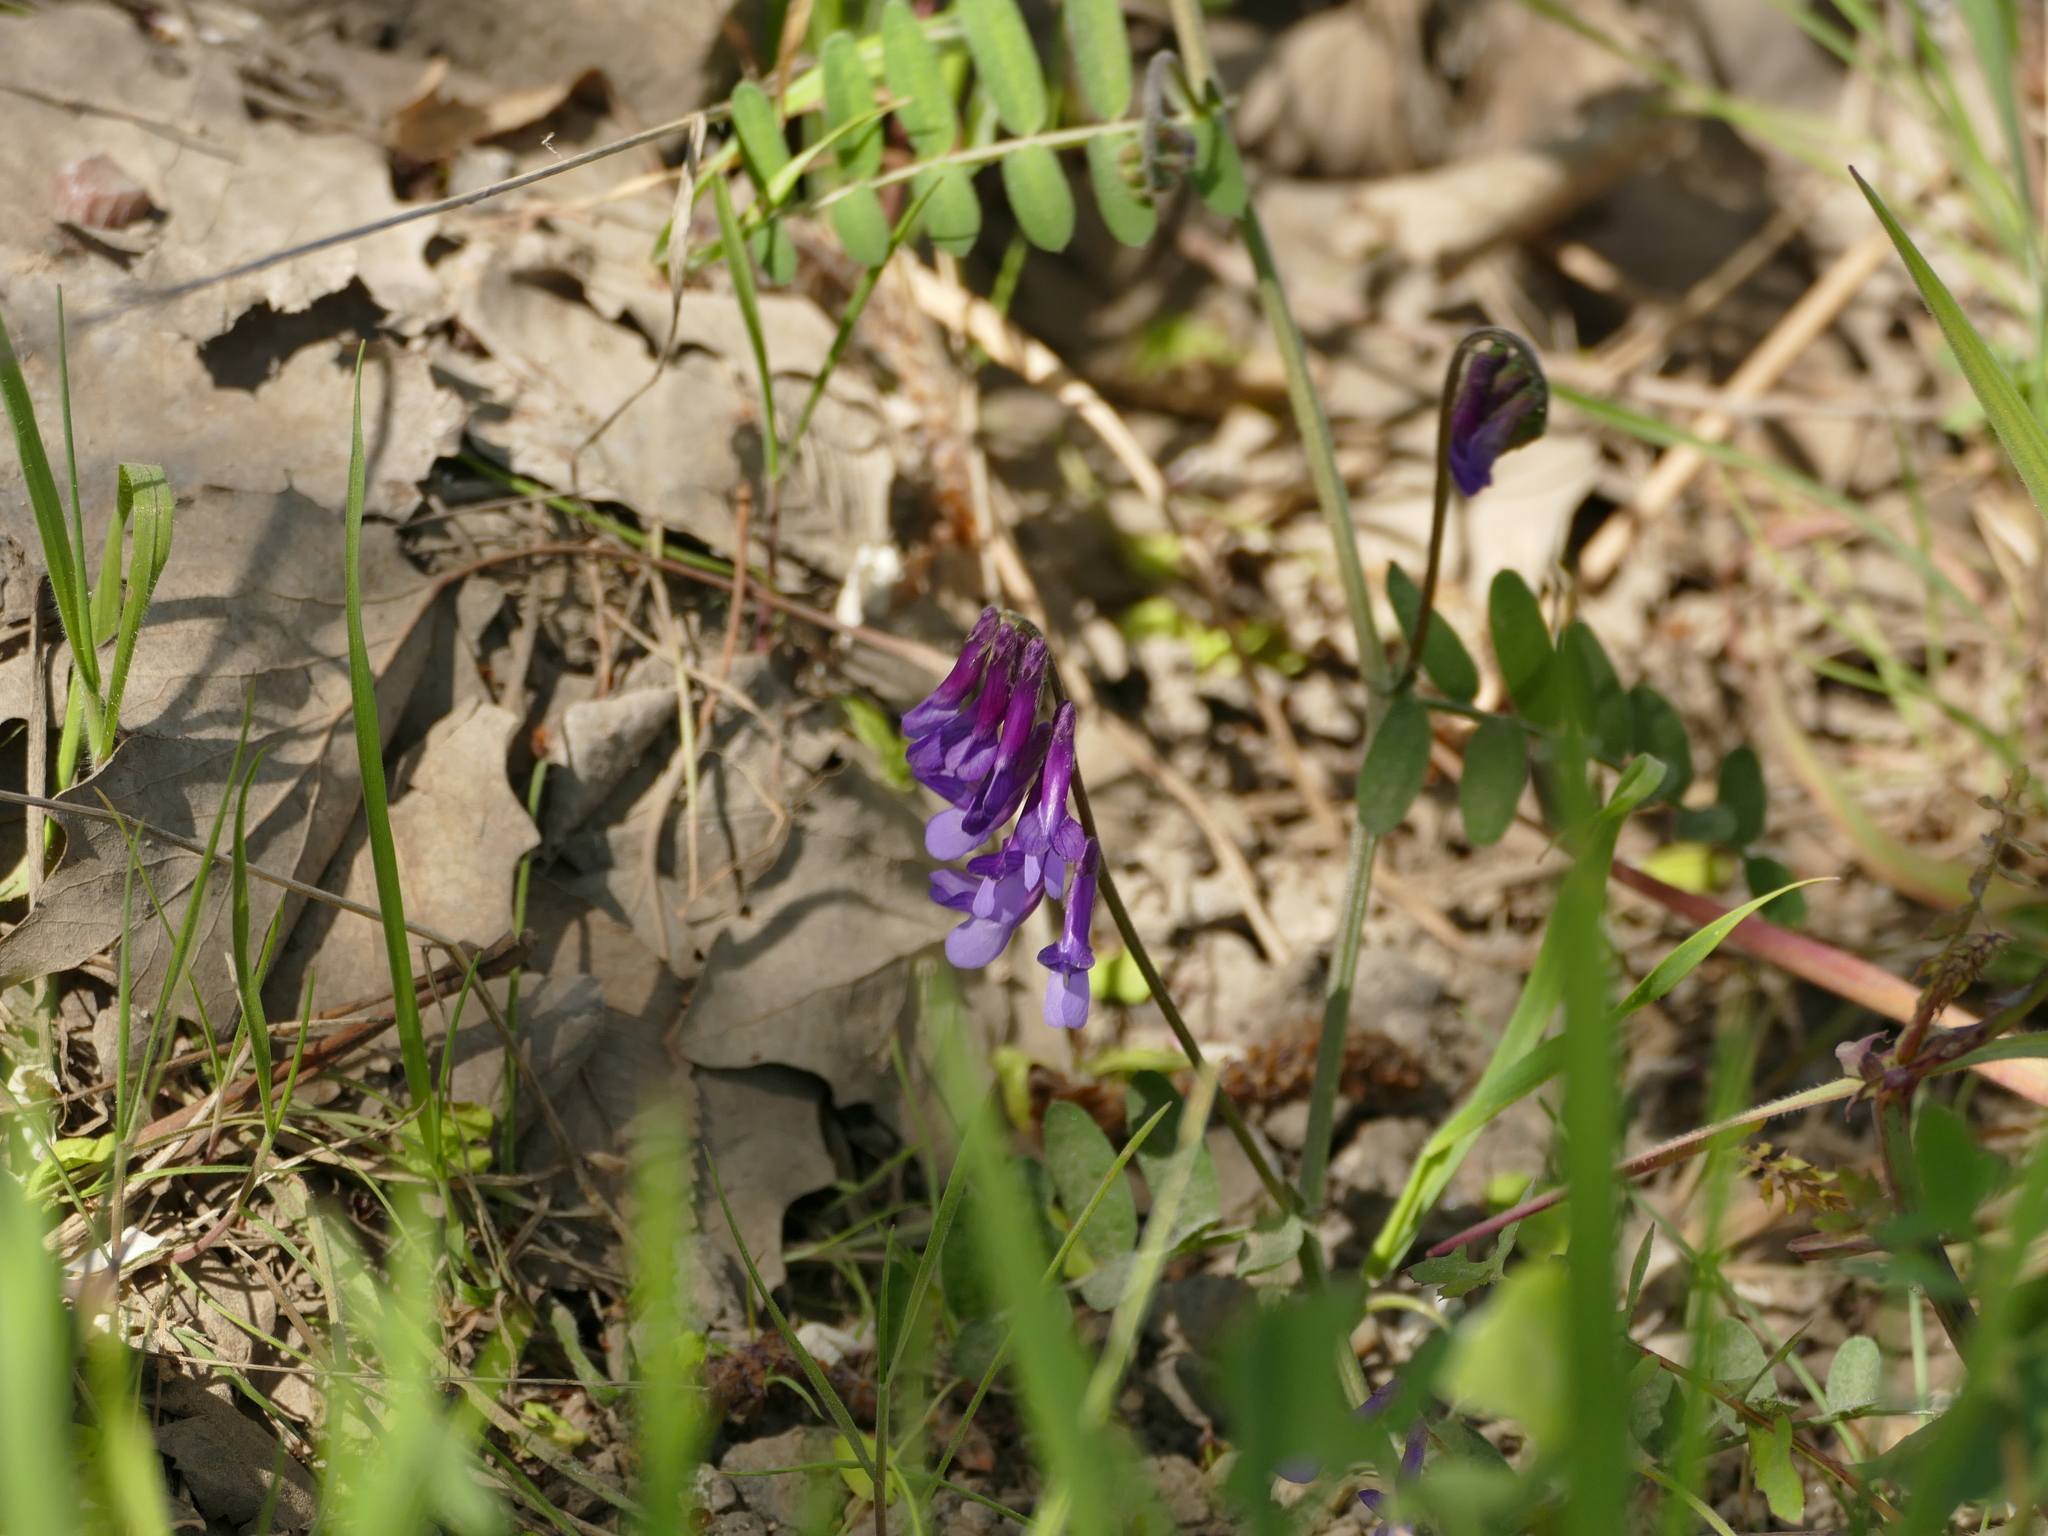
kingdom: Plantae
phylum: Tracheophyta
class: Magnoliopsida
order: Fabales
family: Fabaceae
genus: Vicia
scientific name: Vicia villosa
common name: Fodder vetch
